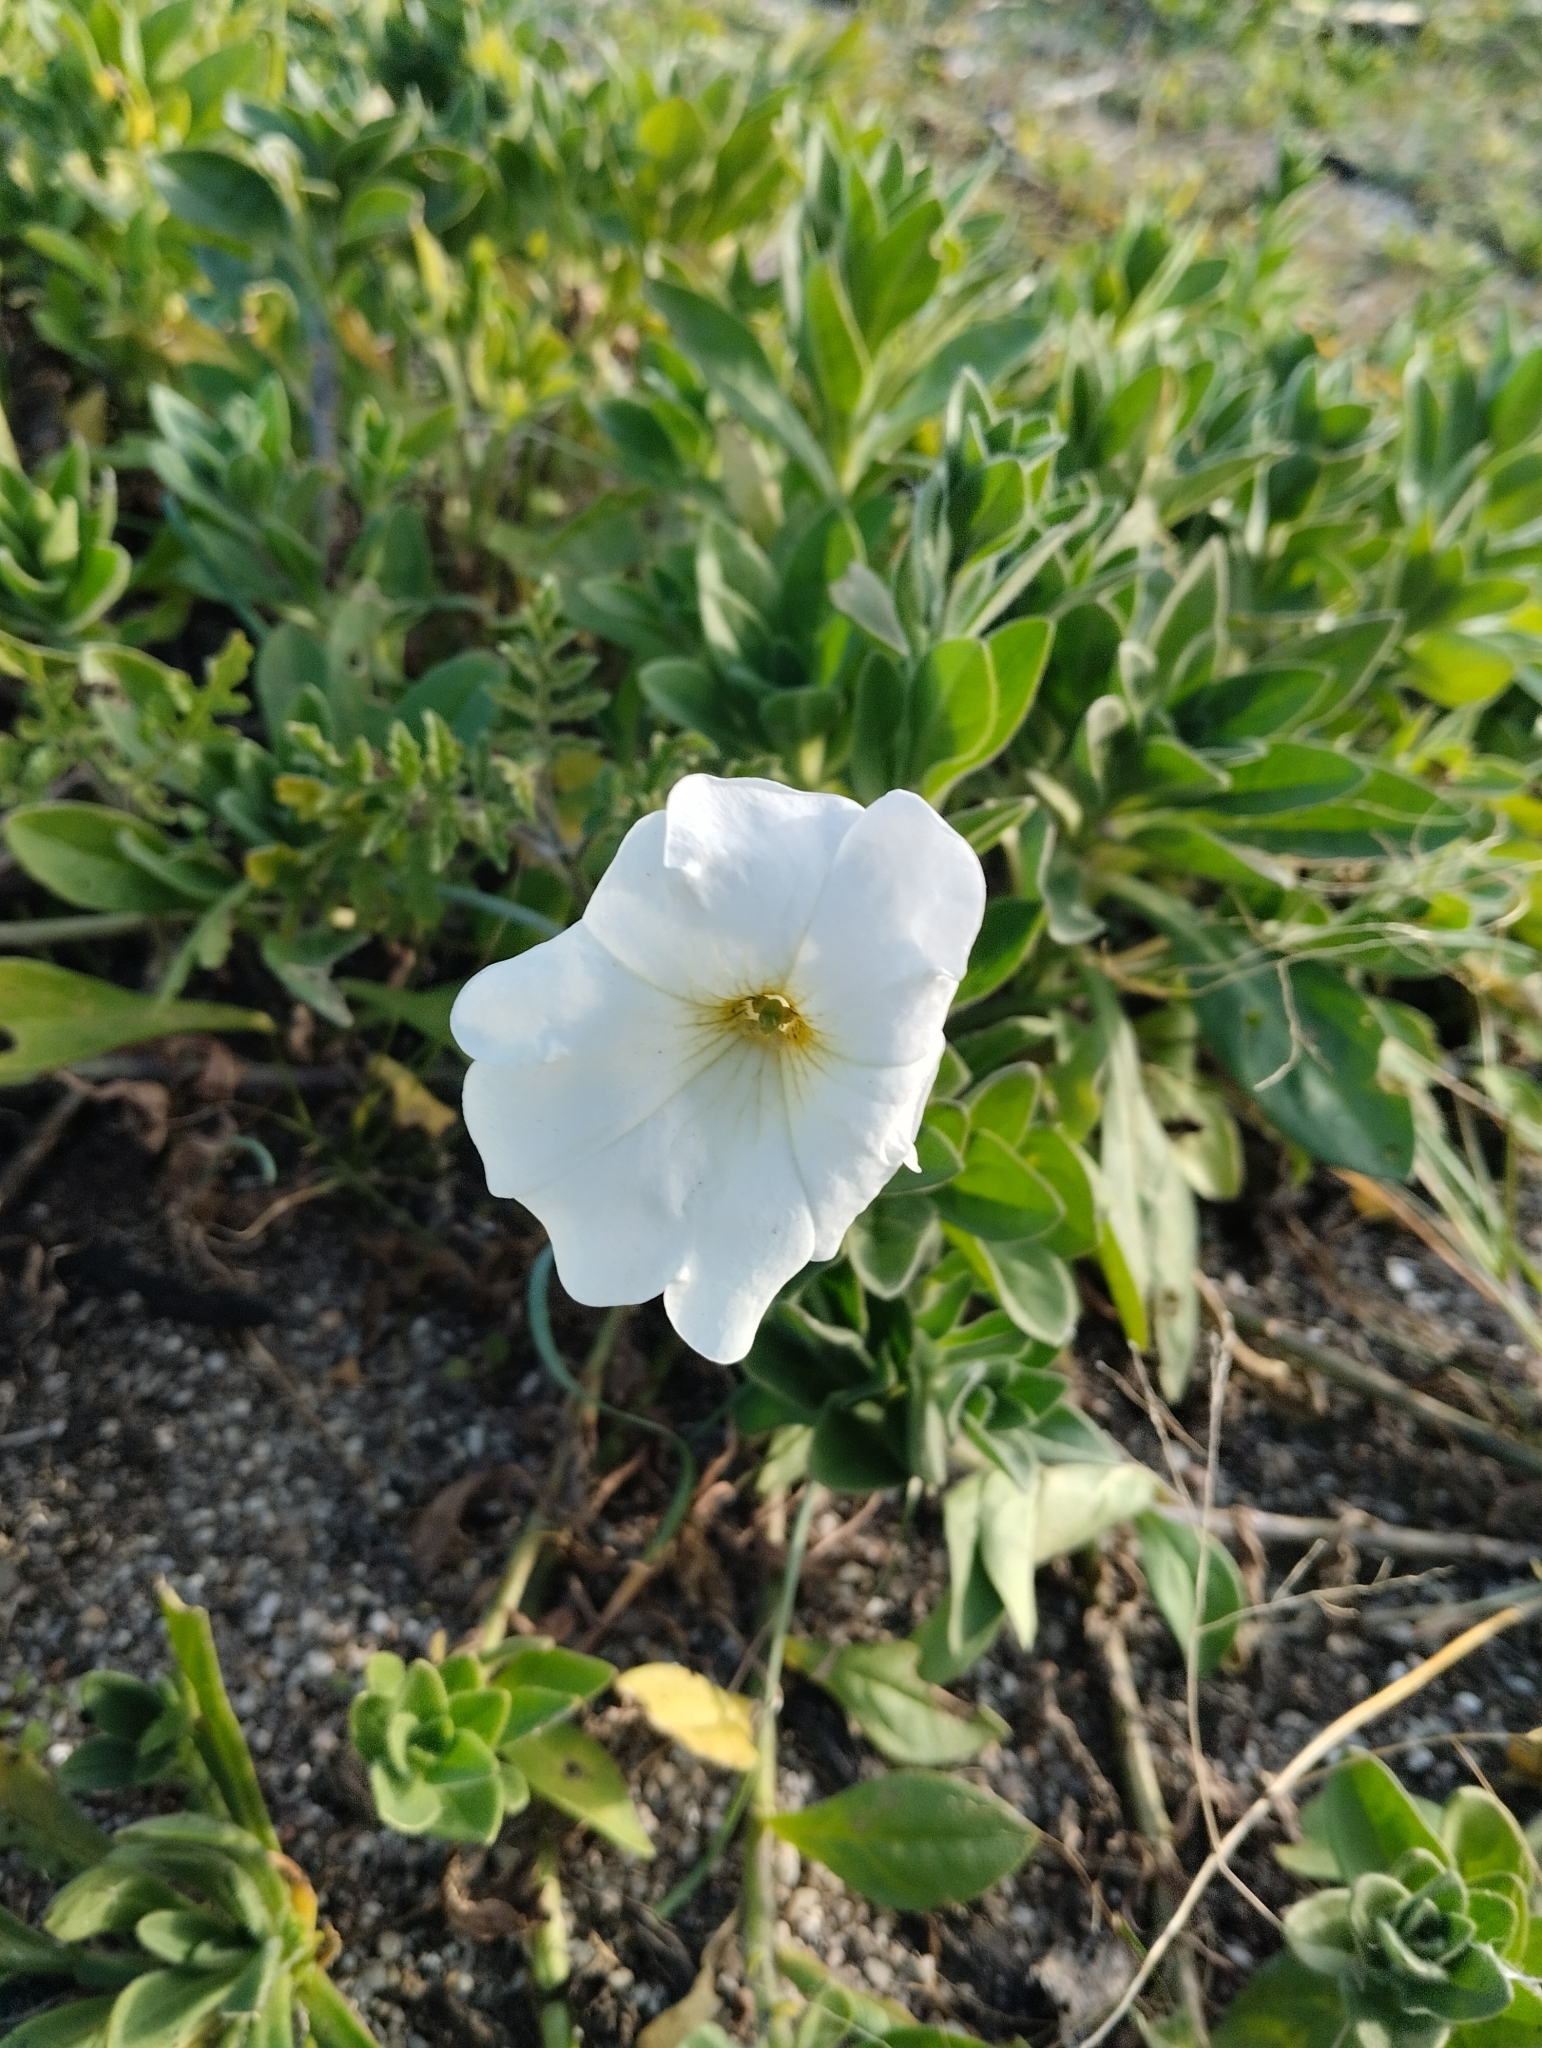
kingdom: Plantae
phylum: Tracheophyta
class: Magnoliopsida
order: Solanales
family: Solanaceae
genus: Petunia
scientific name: Petunia axillaris
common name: Large white petunia
